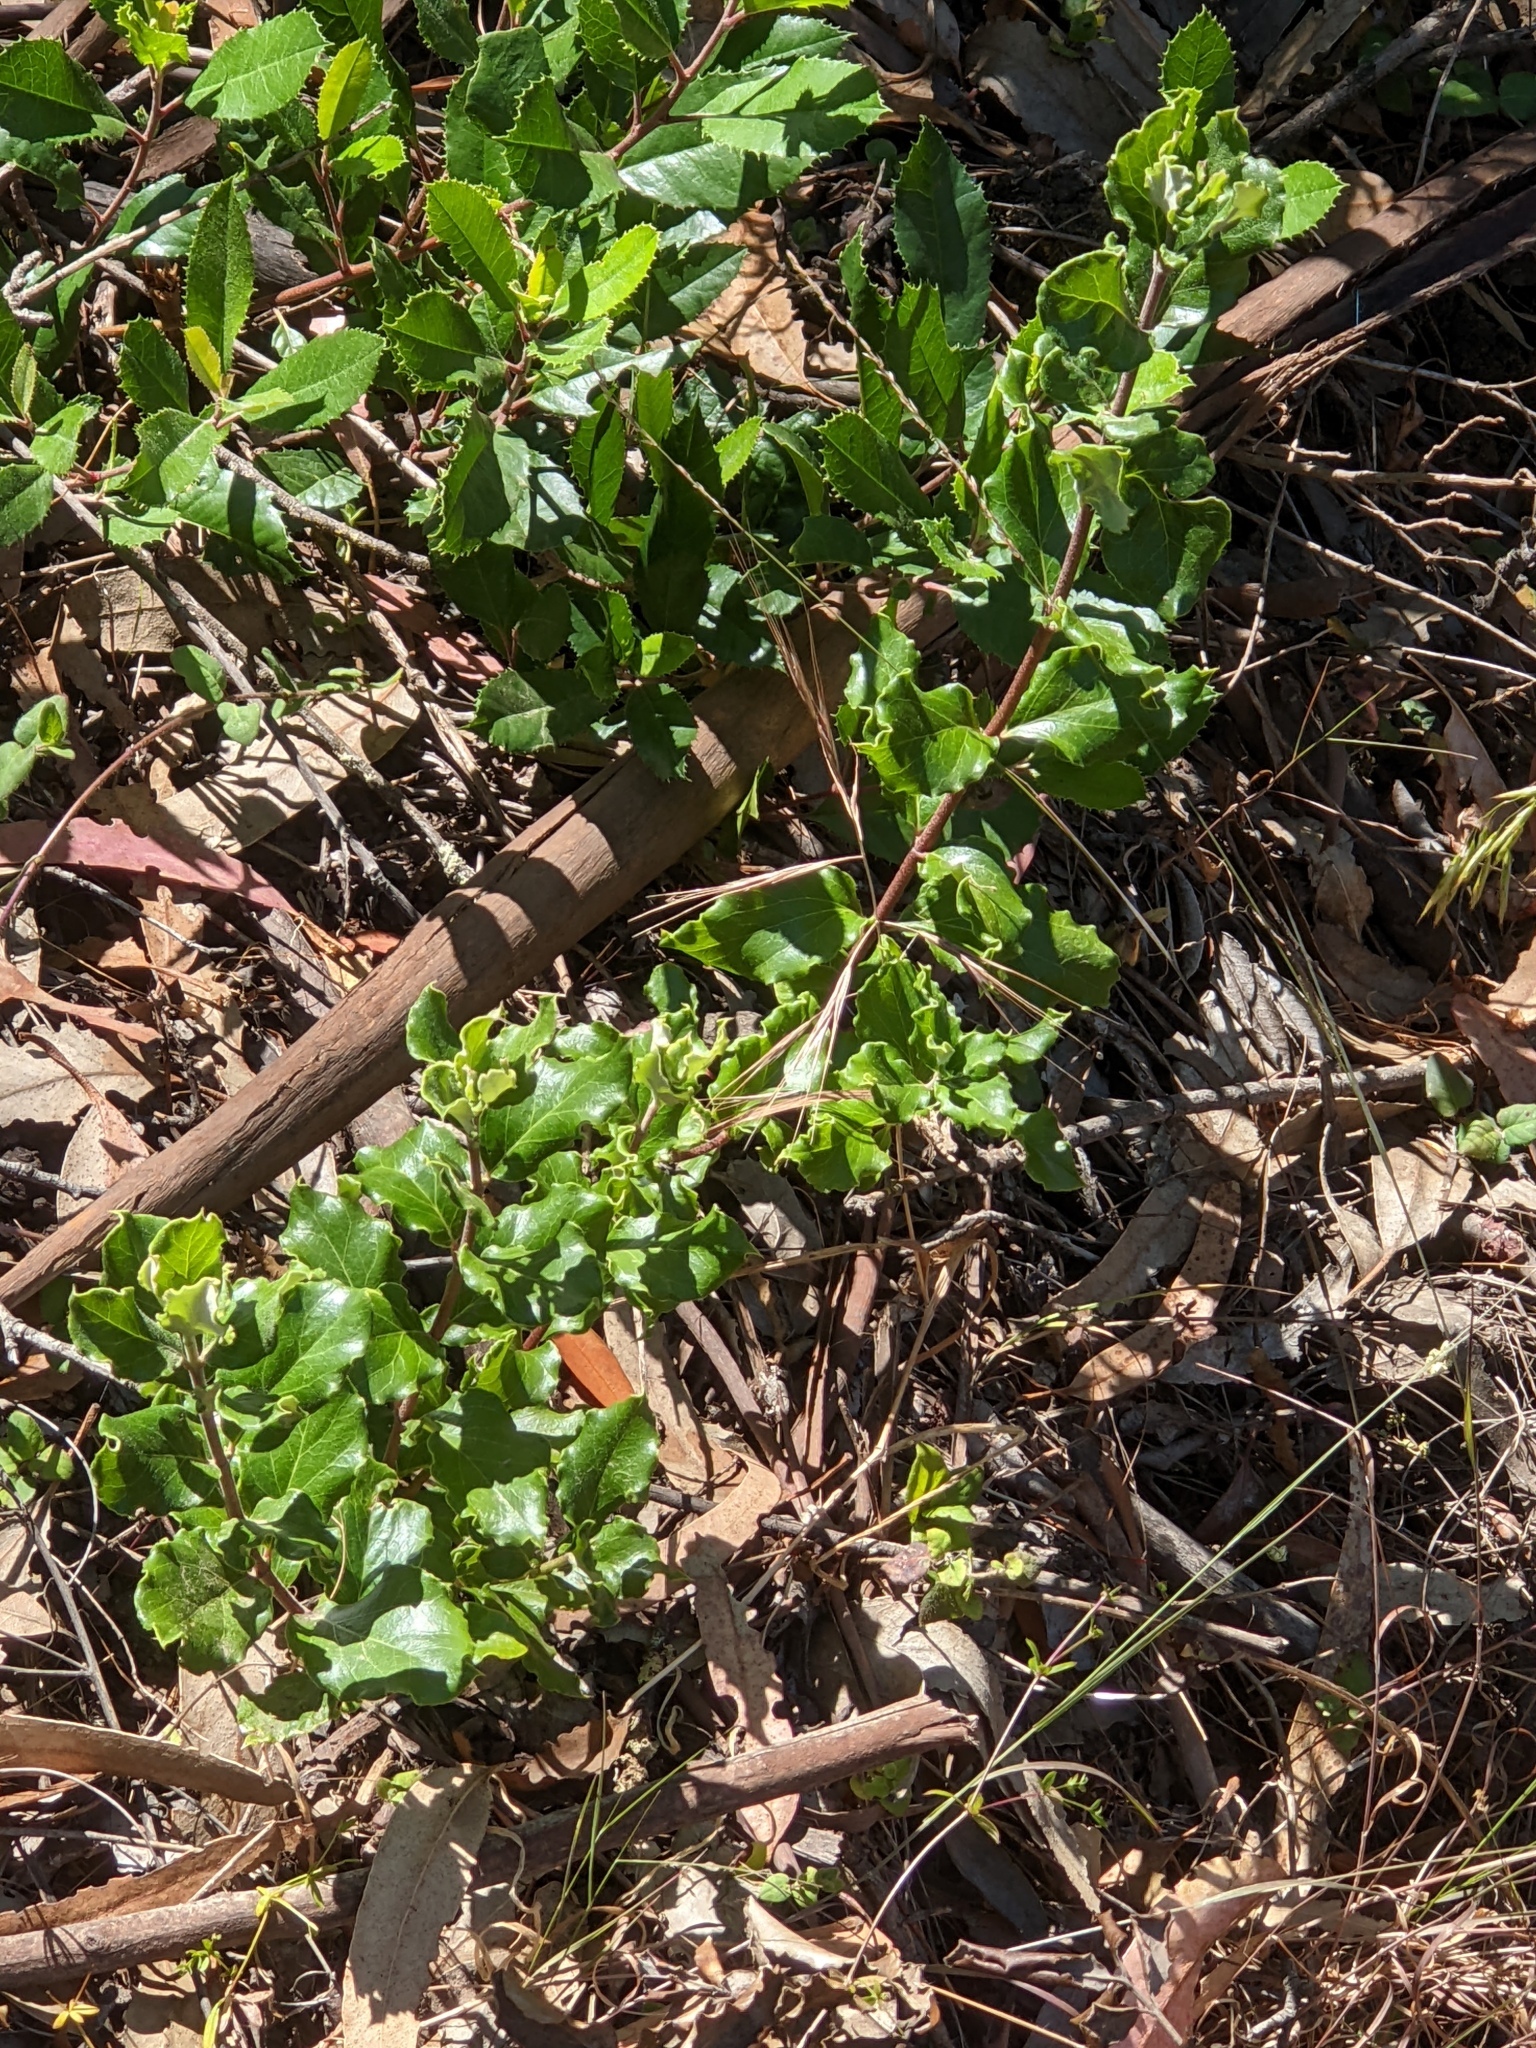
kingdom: Plantae
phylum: Tracheophyta
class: Magnoliopsida
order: Garryales
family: Garryaceae
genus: Garrya
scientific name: Garrya elliptica
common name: Silk-tassel
